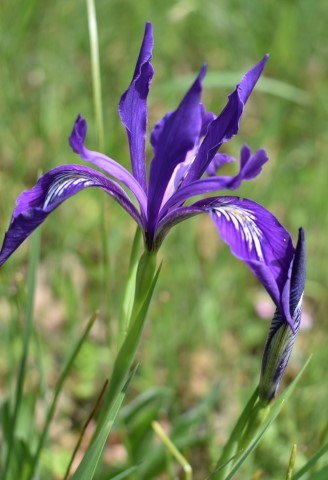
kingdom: Plantae
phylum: Tracheophyta
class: Liliopsida
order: Asparagales
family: Iridaceae
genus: Iris
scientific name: Iris tenax
